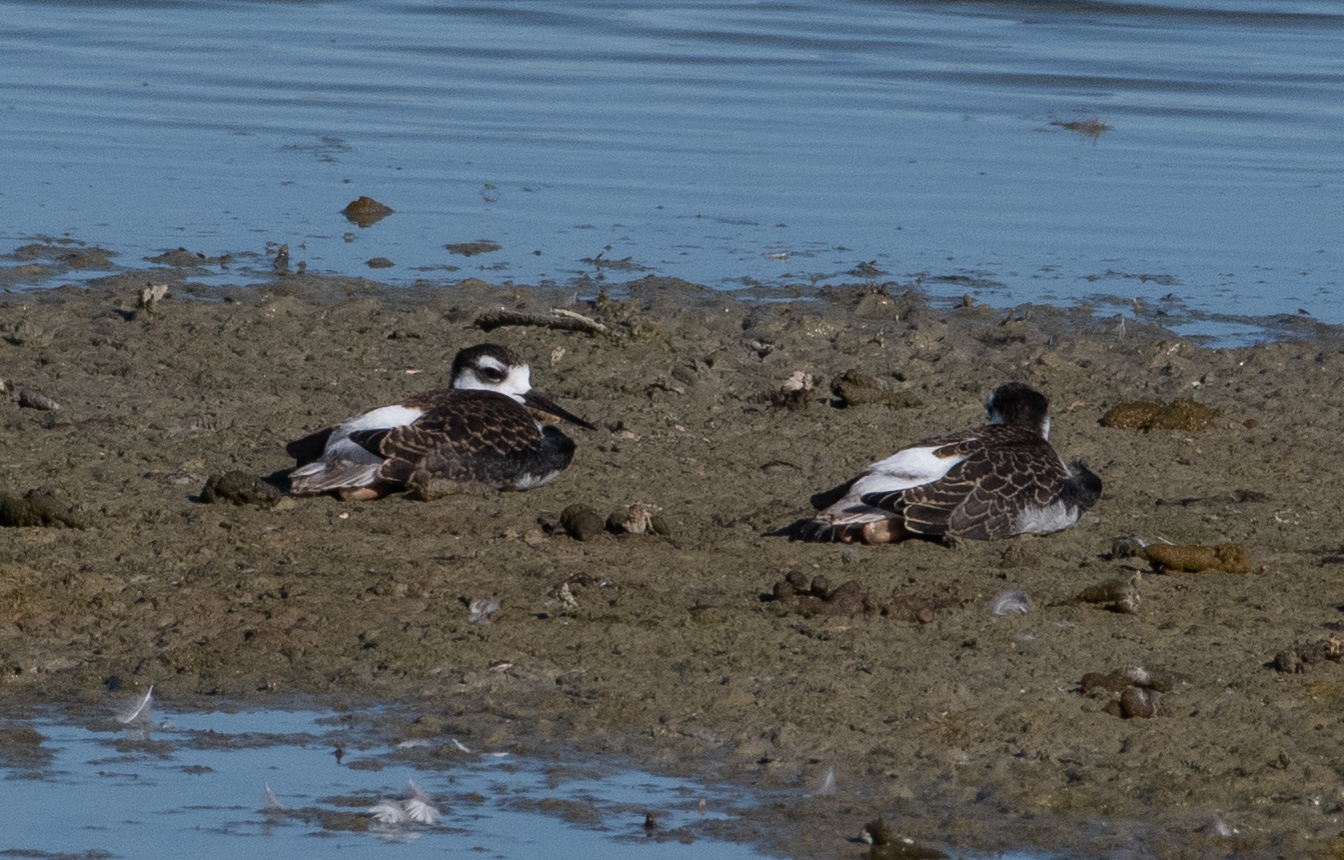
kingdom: Animalia
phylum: Chordata
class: Aves
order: Charadriiformes
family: Recurvirostridae
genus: Himantopus
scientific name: Himantopus mexicanus
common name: Black-necked stilt
